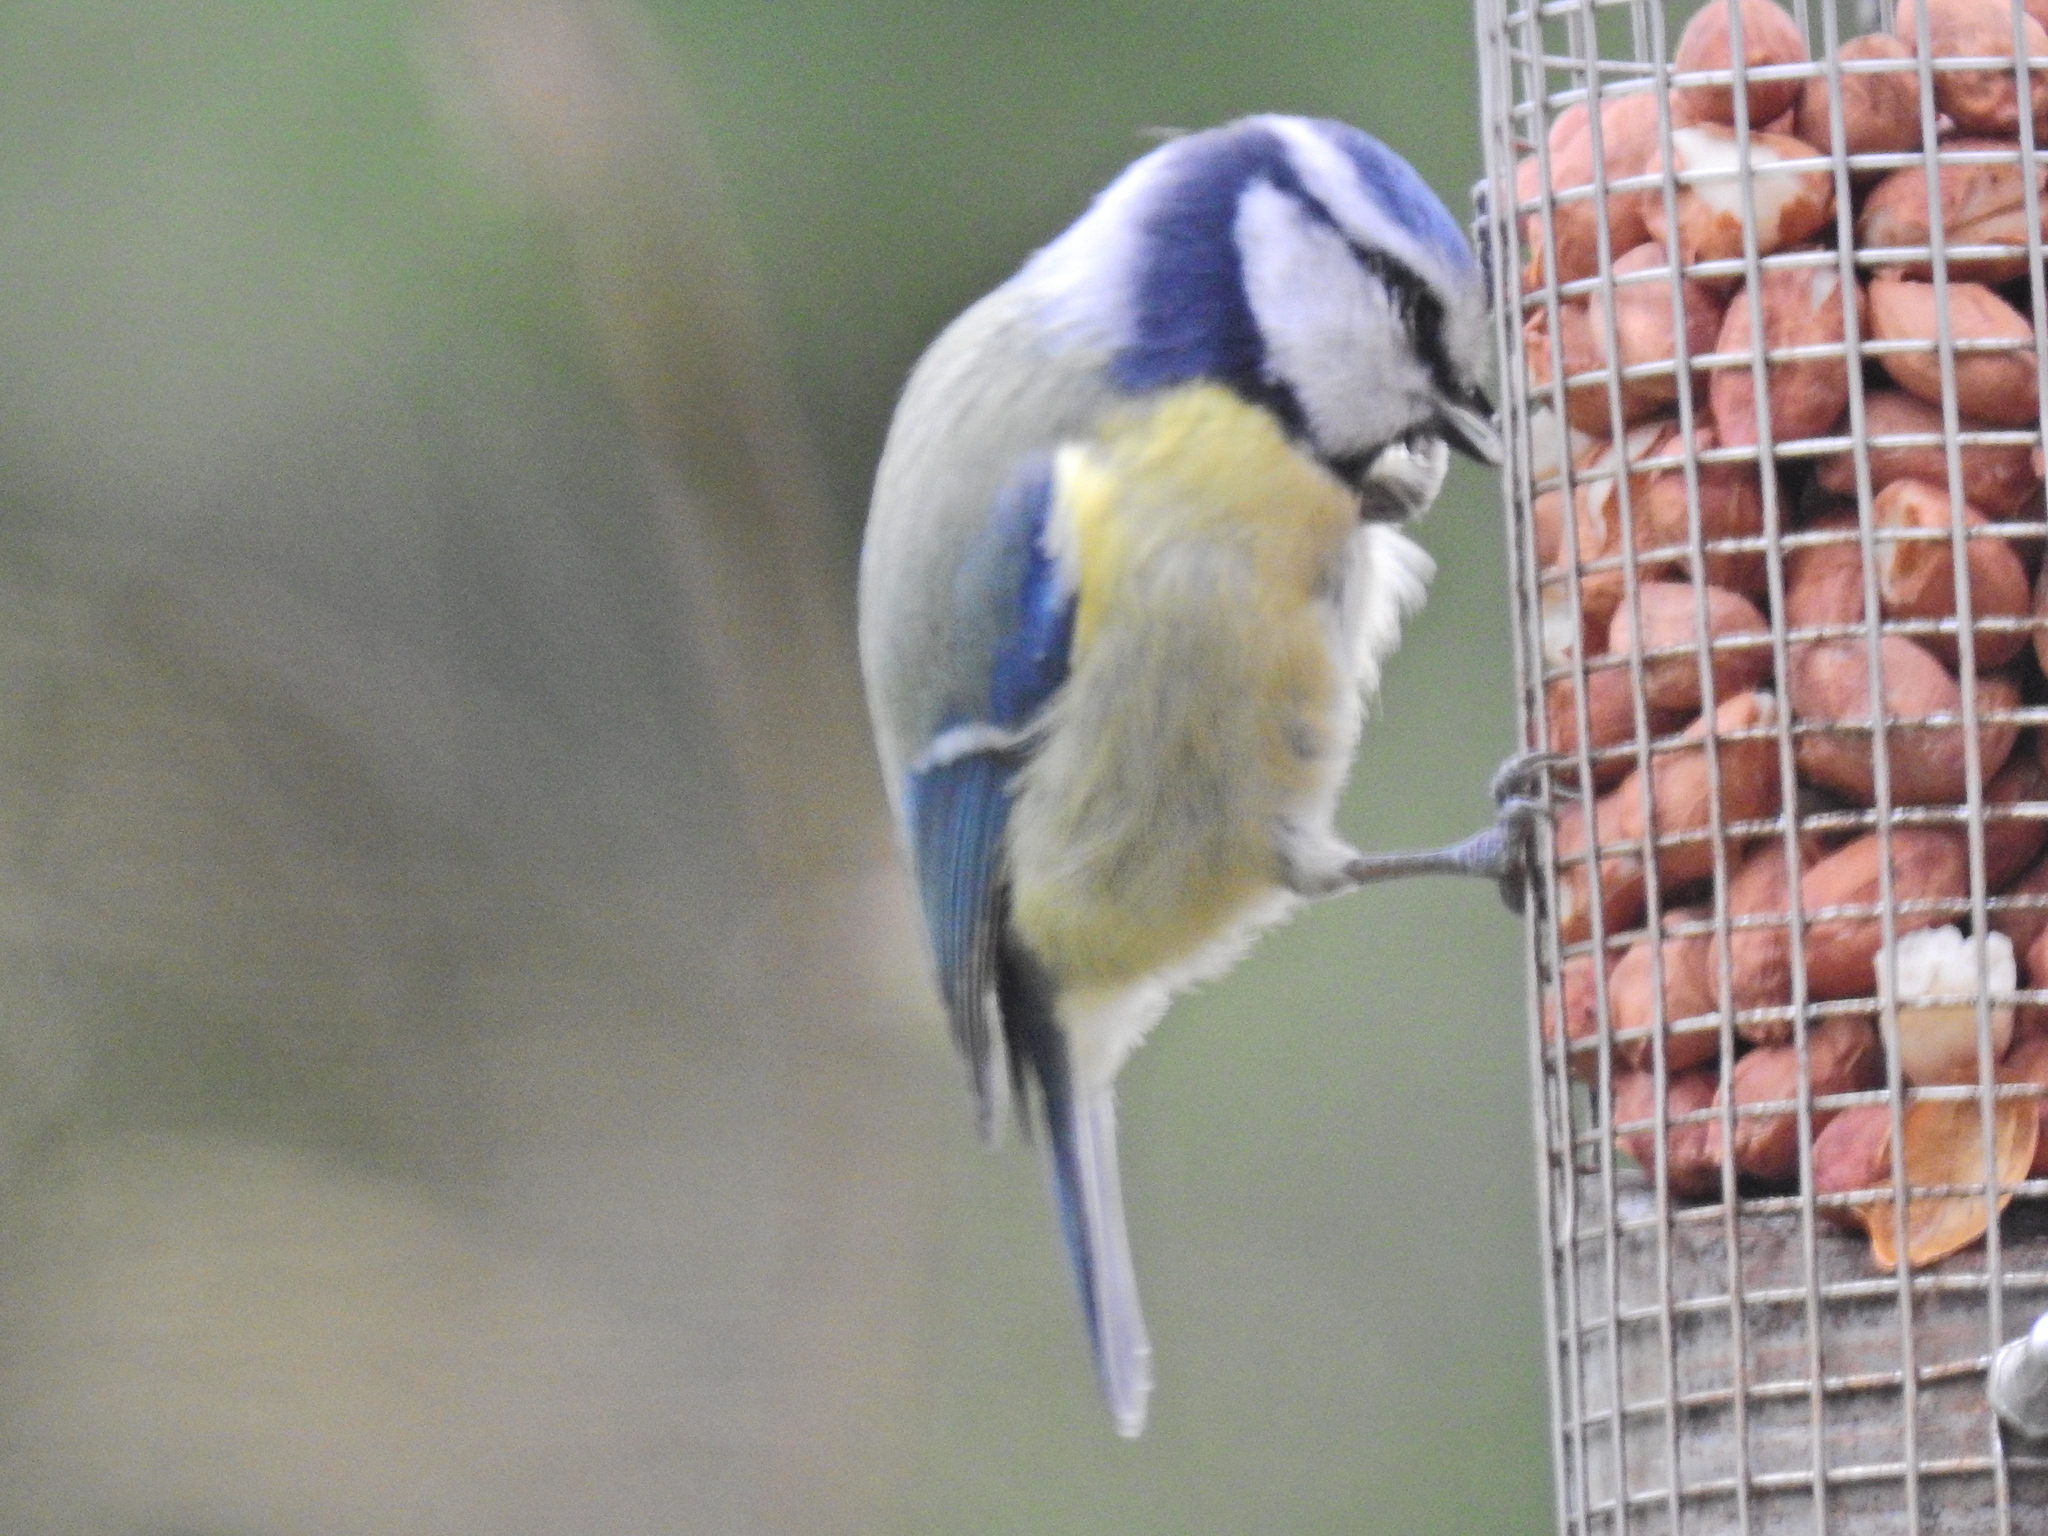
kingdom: Animalia
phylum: Chordata
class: Aves
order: Passeriformes
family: Paridae
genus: Cyanistes
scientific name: Cyanistes caeruleus
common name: Eurasian blue tit
